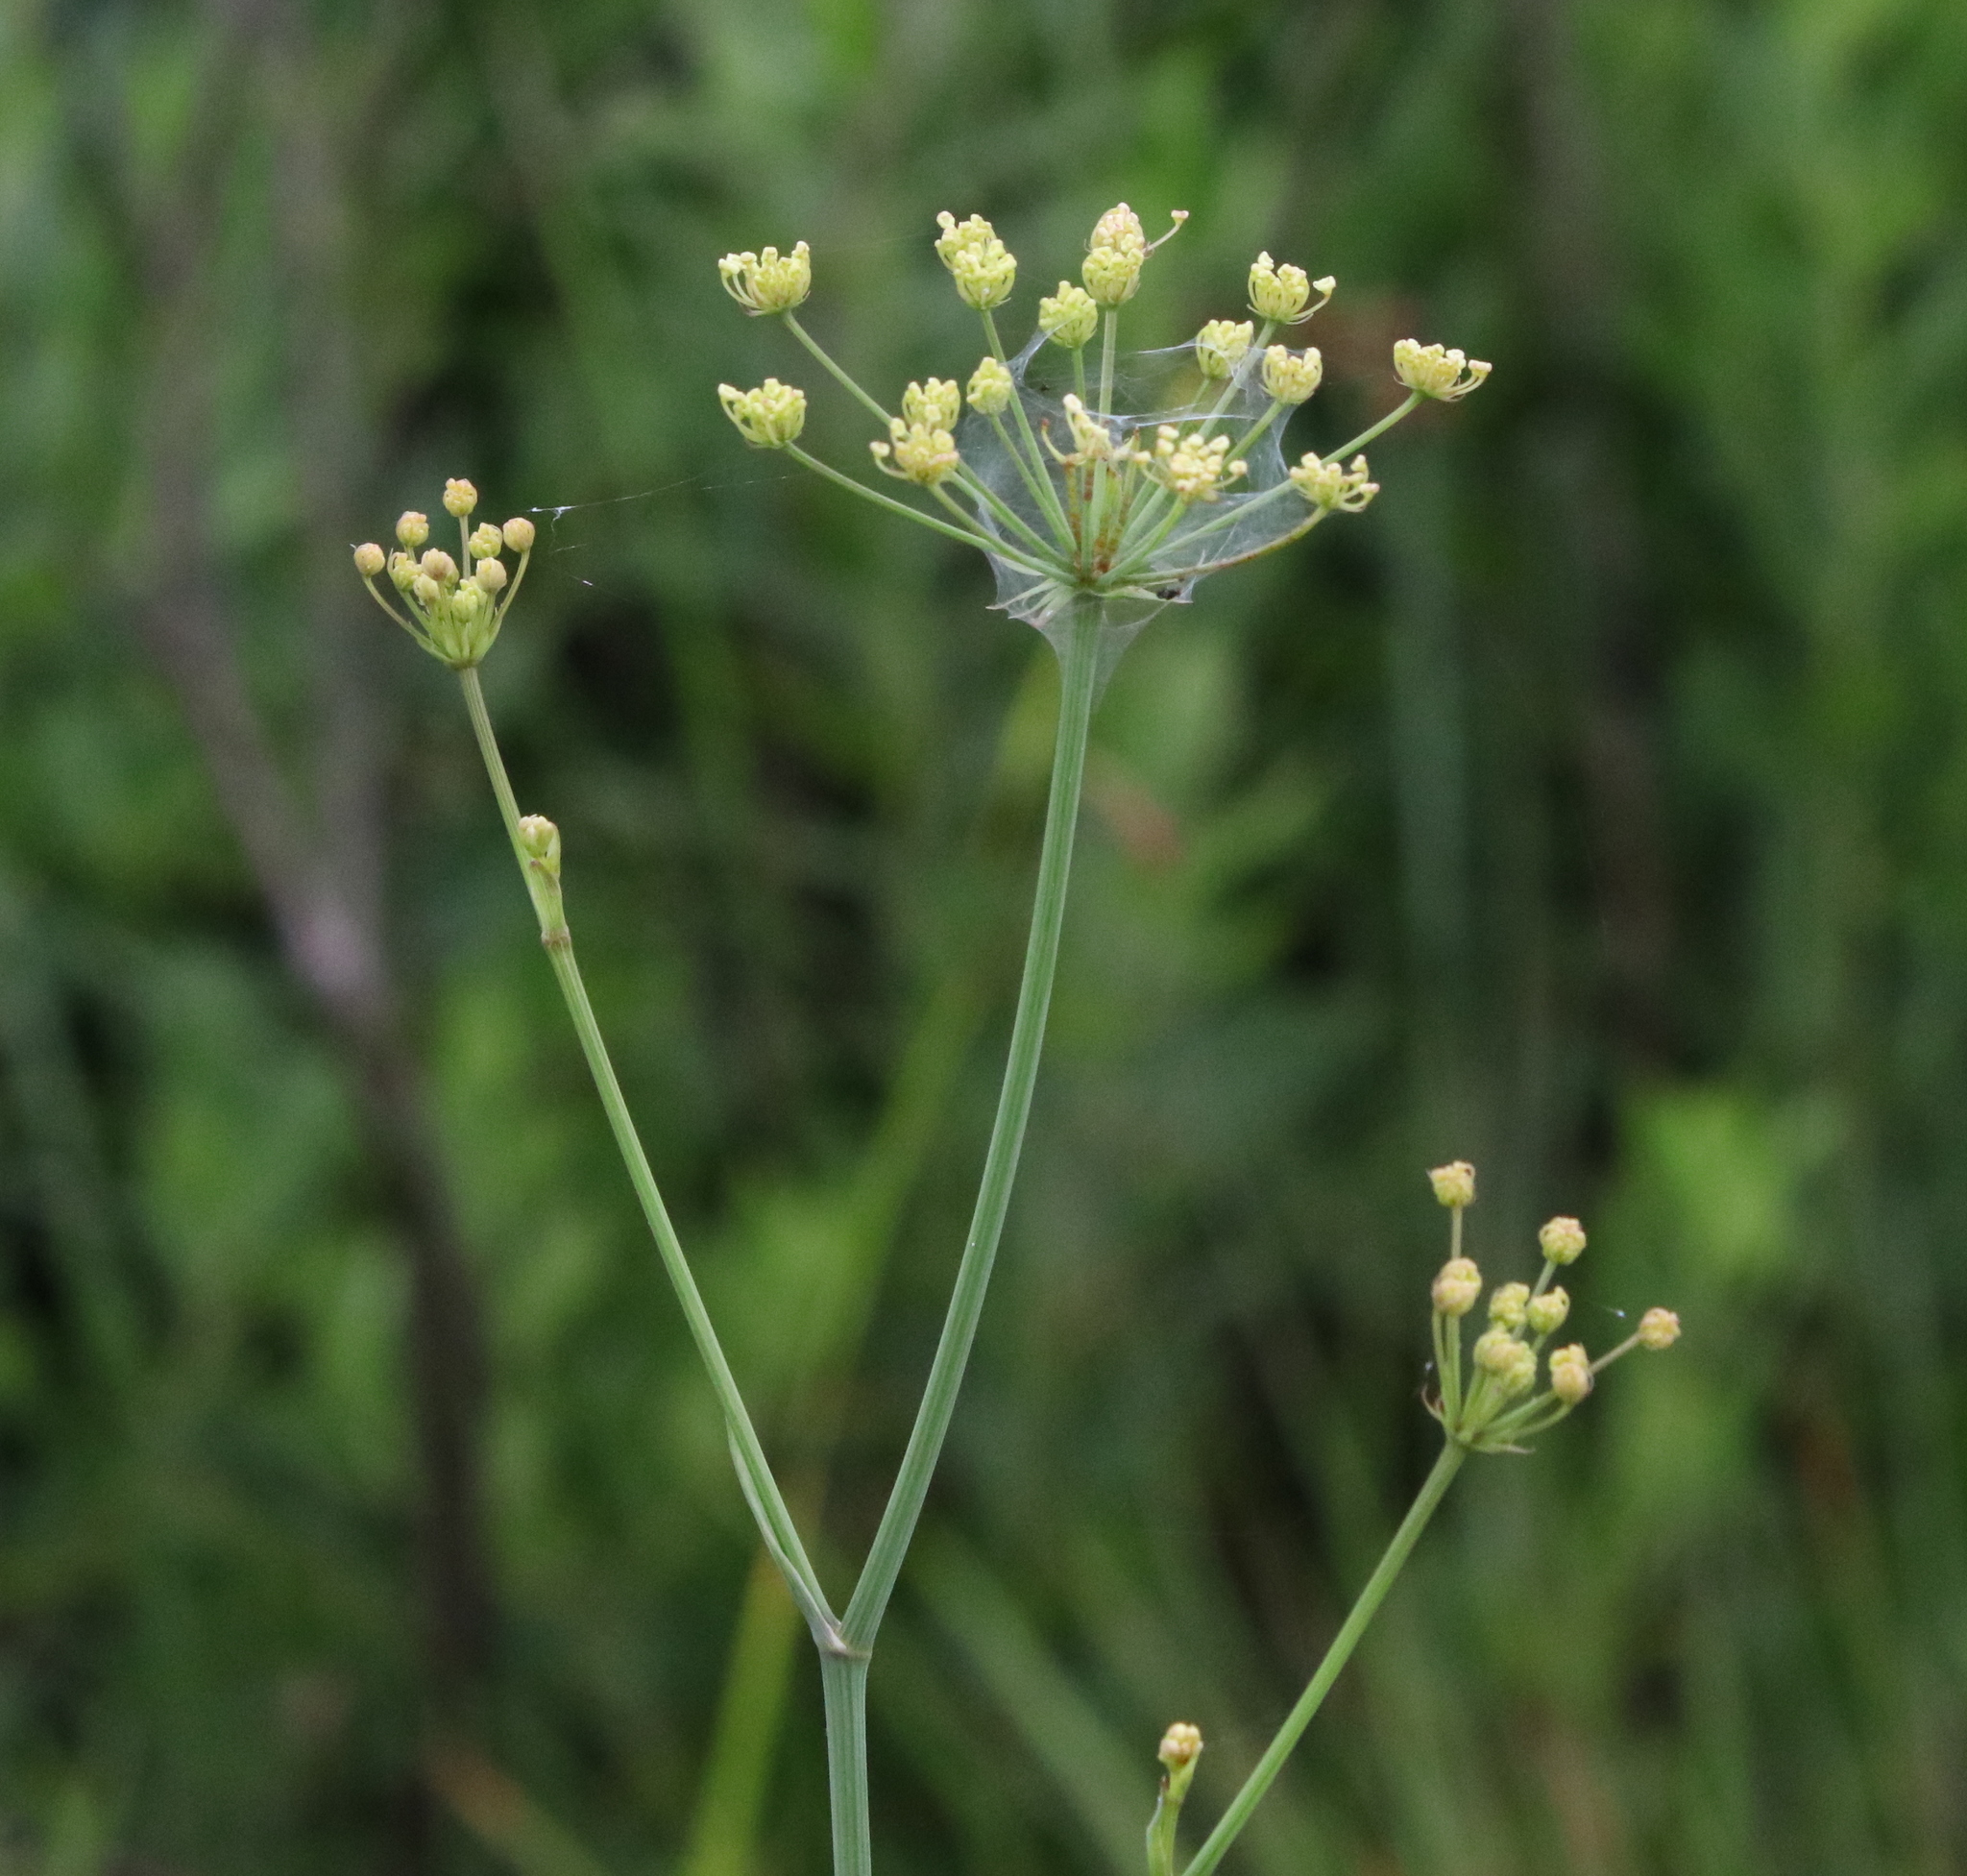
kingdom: Plantae
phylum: Tracheophyta
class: Magnoliopsida
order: Apiales
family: Apiaceae
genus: Tiedemannia
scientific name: Tiedemannia filiformis
